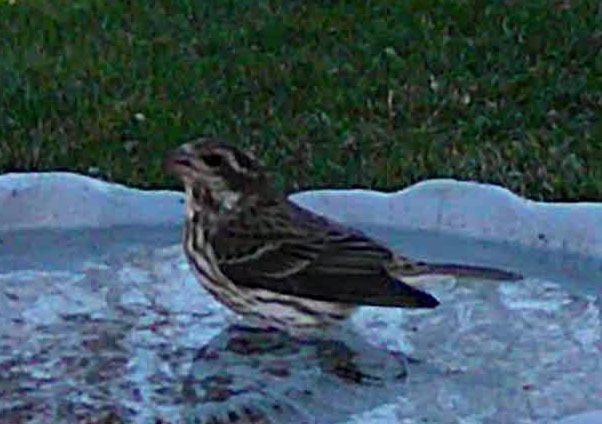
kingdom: Animalia
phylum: Chordata
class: Aves
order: Passeriformes
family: Fringillidae
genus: Haemorhous
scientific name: Haemorhous purpureus
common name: Purple finch
